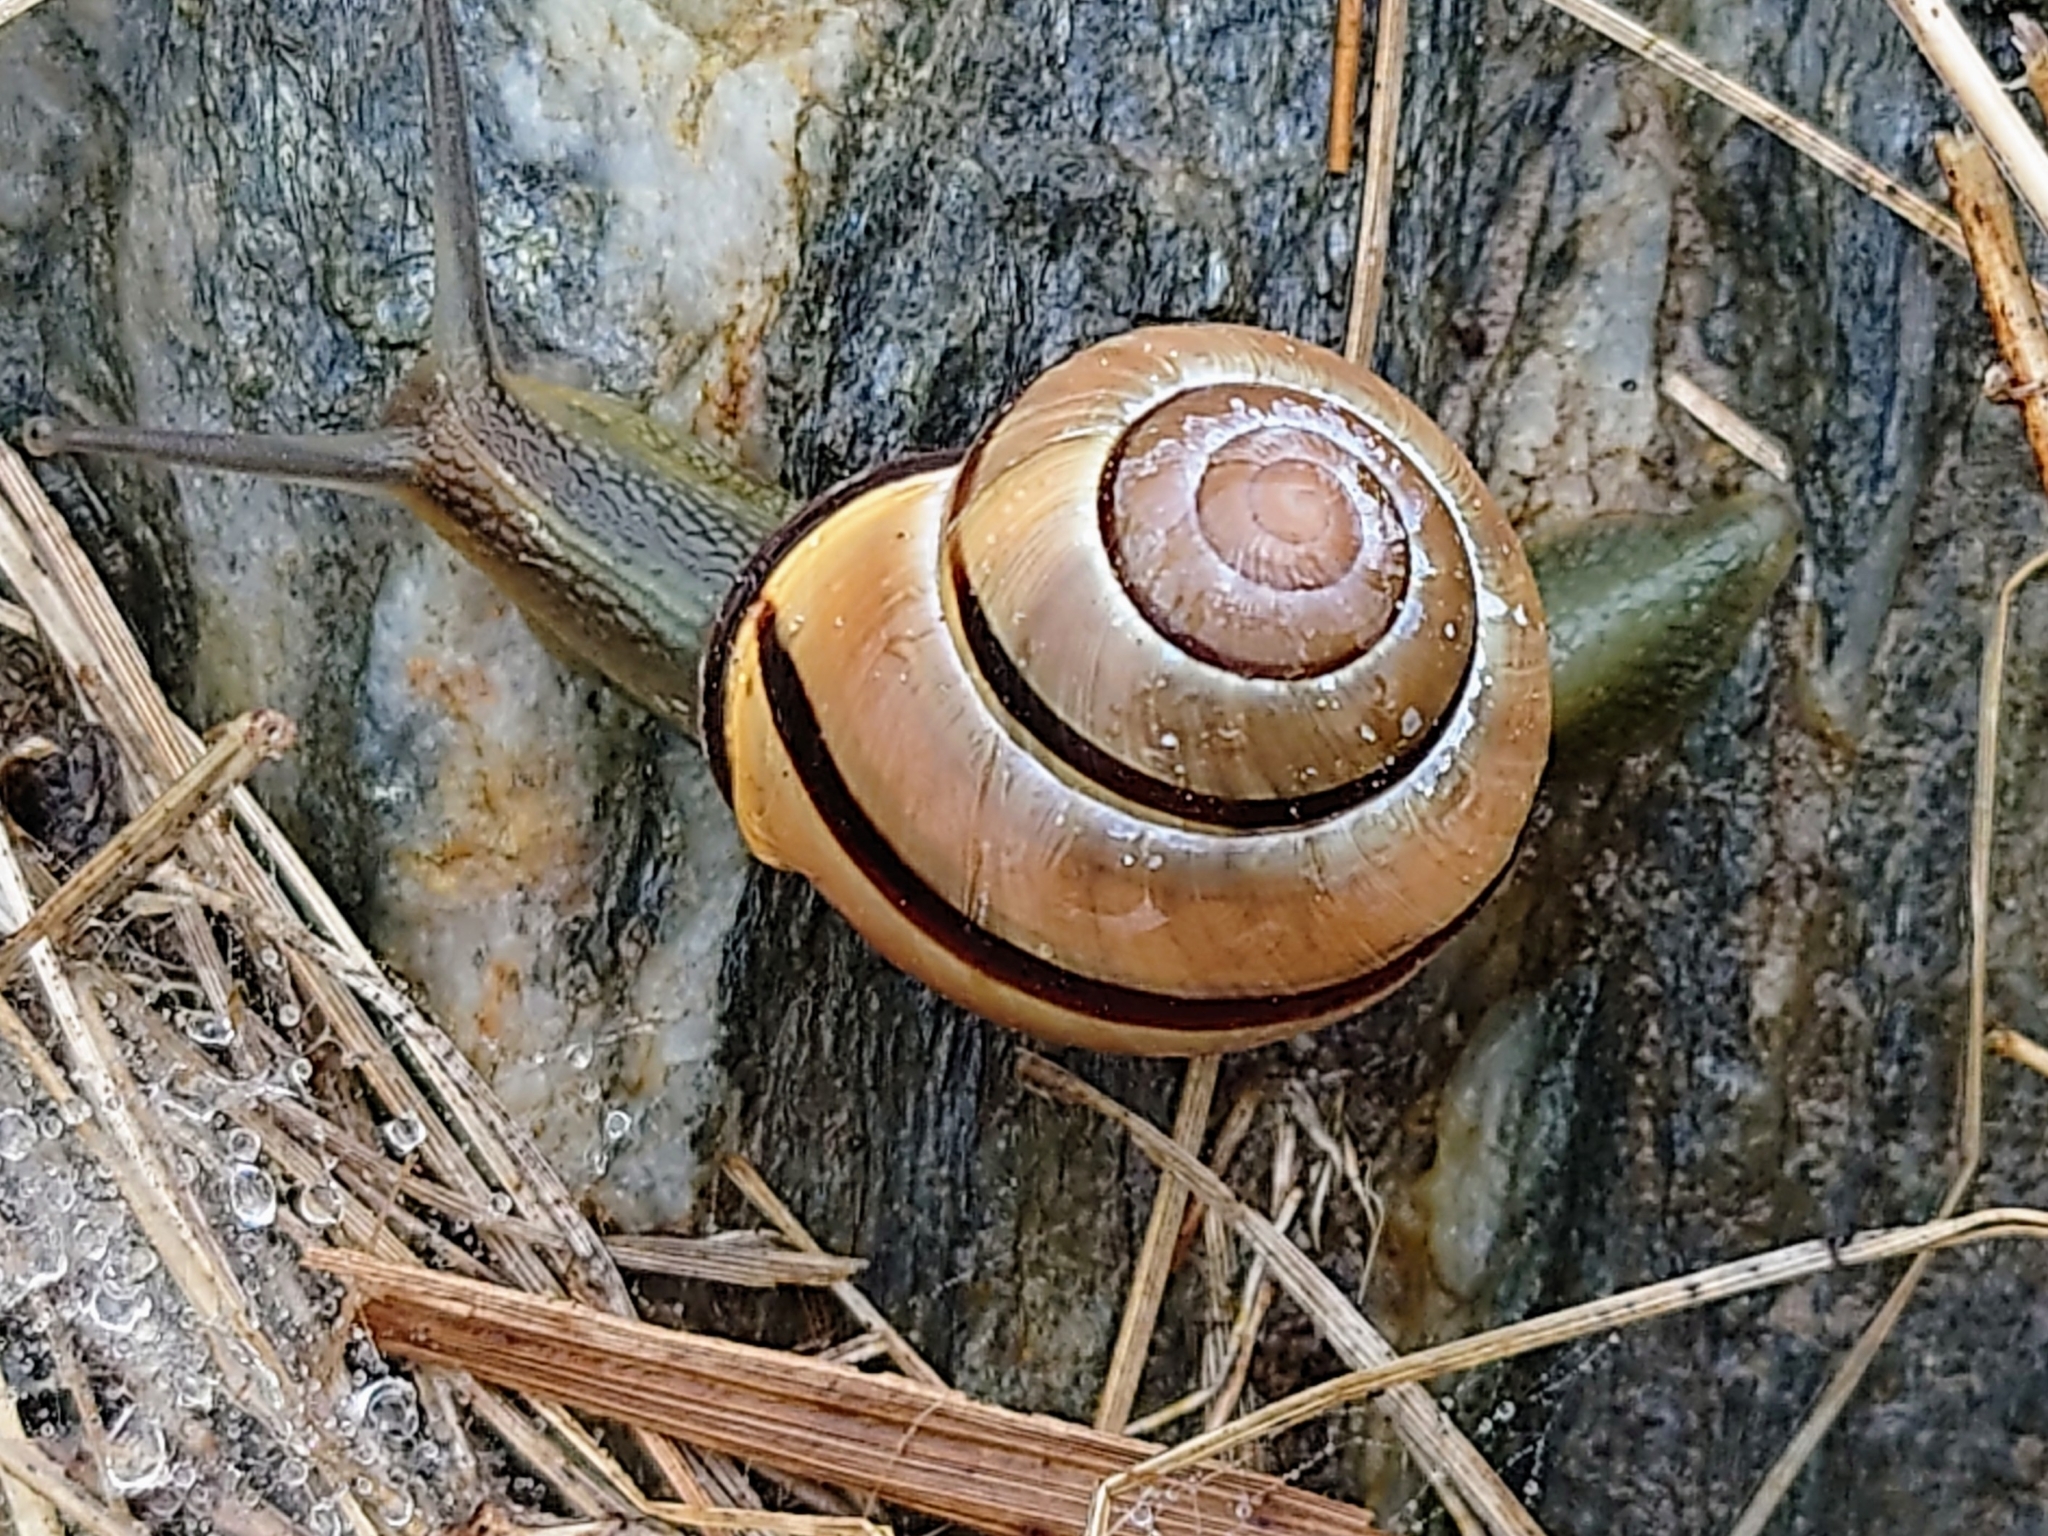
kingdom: Animalia
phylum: Mollusca
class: Gastropoda
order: Stylommatophora
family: Helicidae
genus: Cepaea
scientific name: Cepaea nemoralis
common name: Grovesnail
